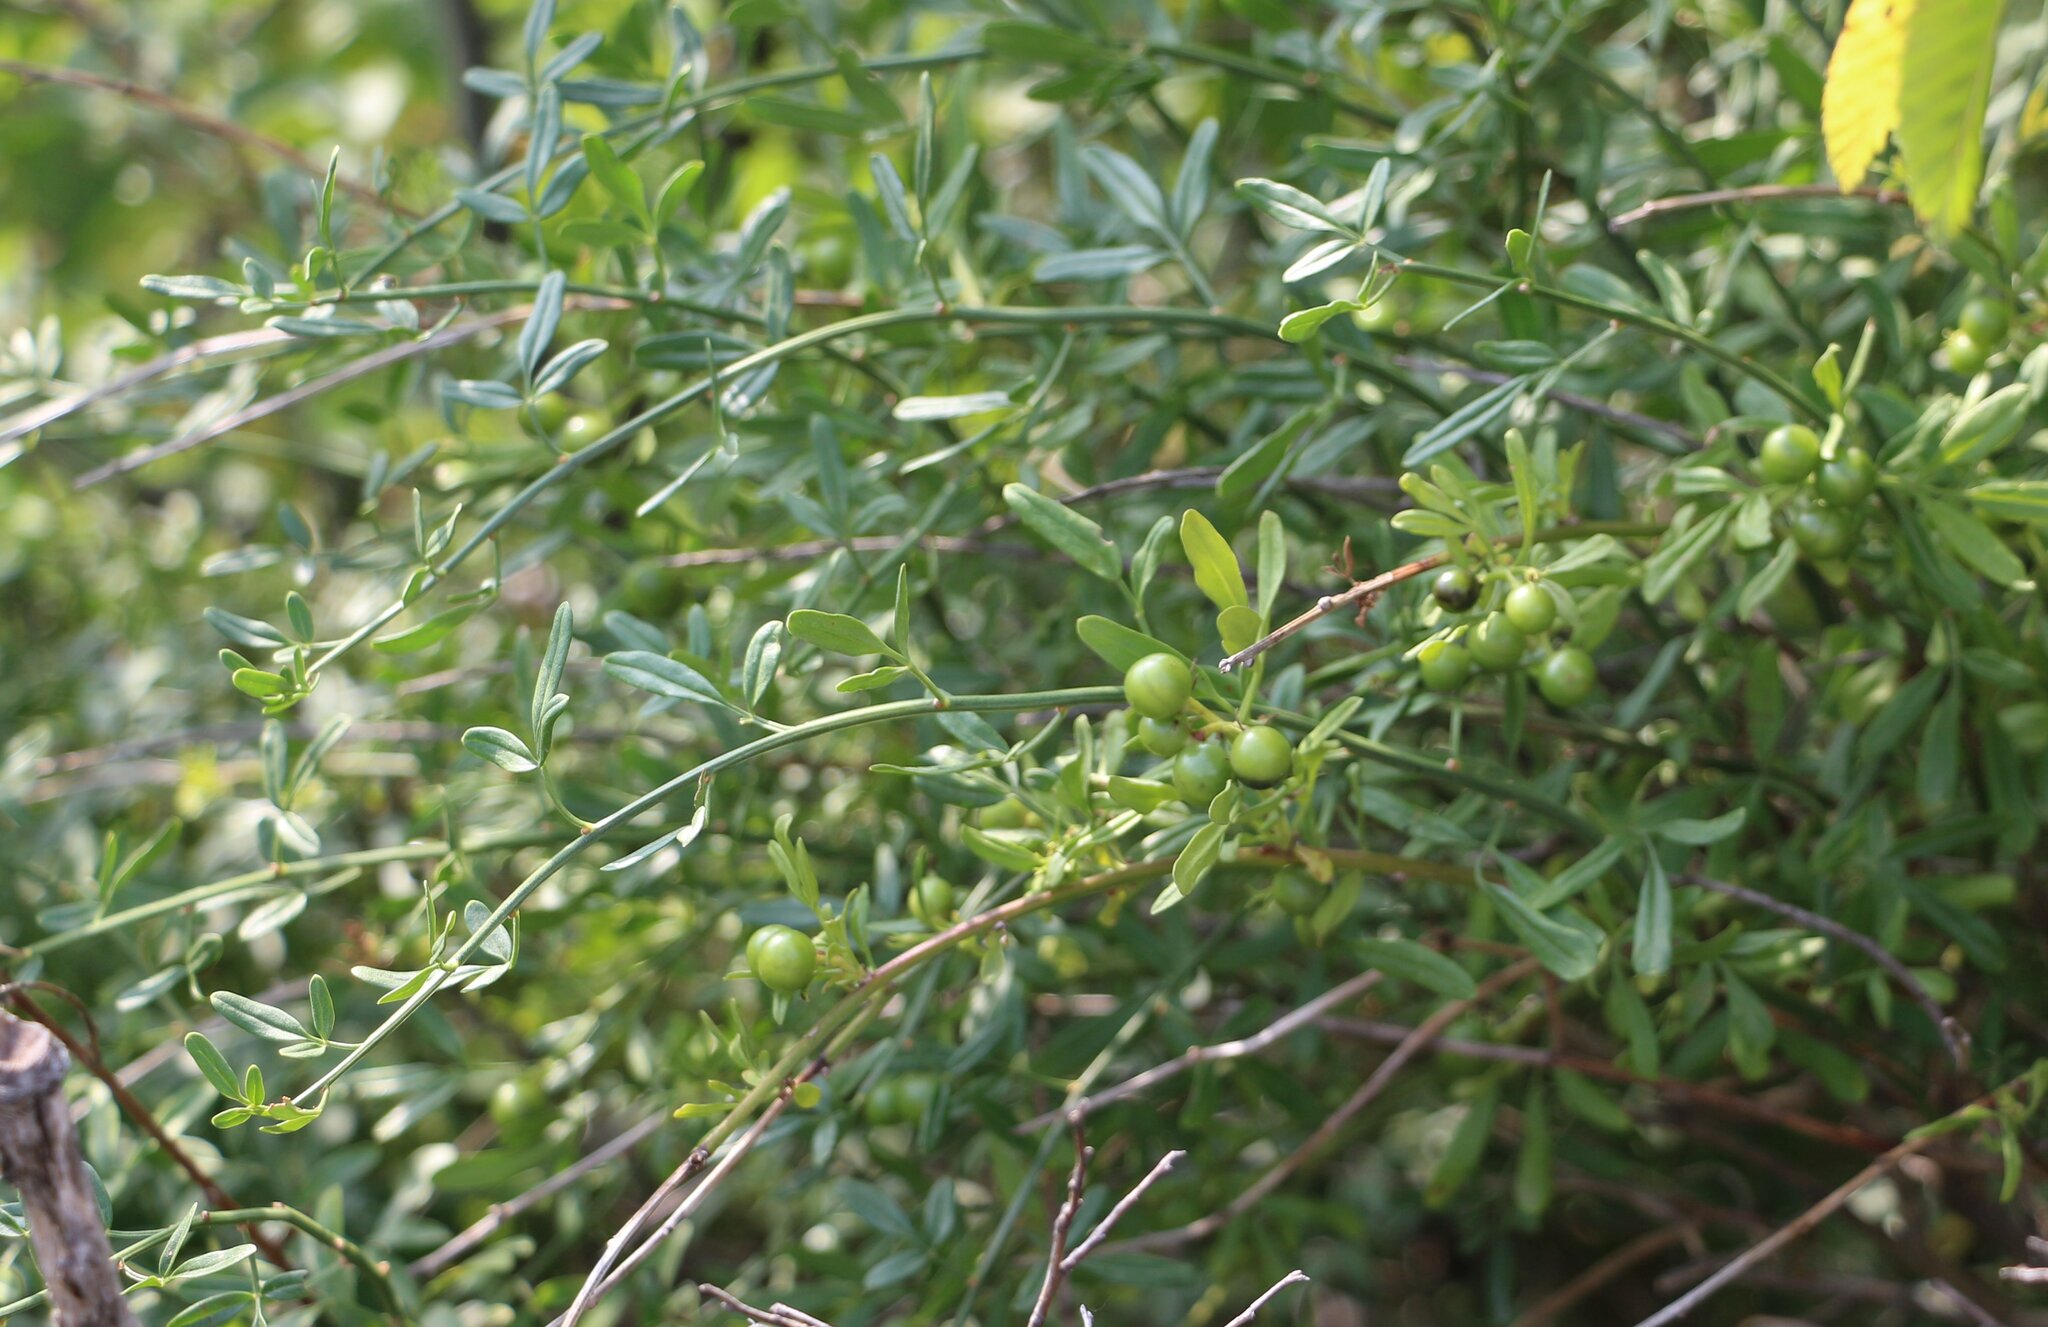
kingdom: Plantae
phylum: Tracheophyta
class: Magnoliopsida
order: Lamiales
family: Oleaceae
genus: Chrysojasminum
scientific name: Chrysojasminum fruticans
